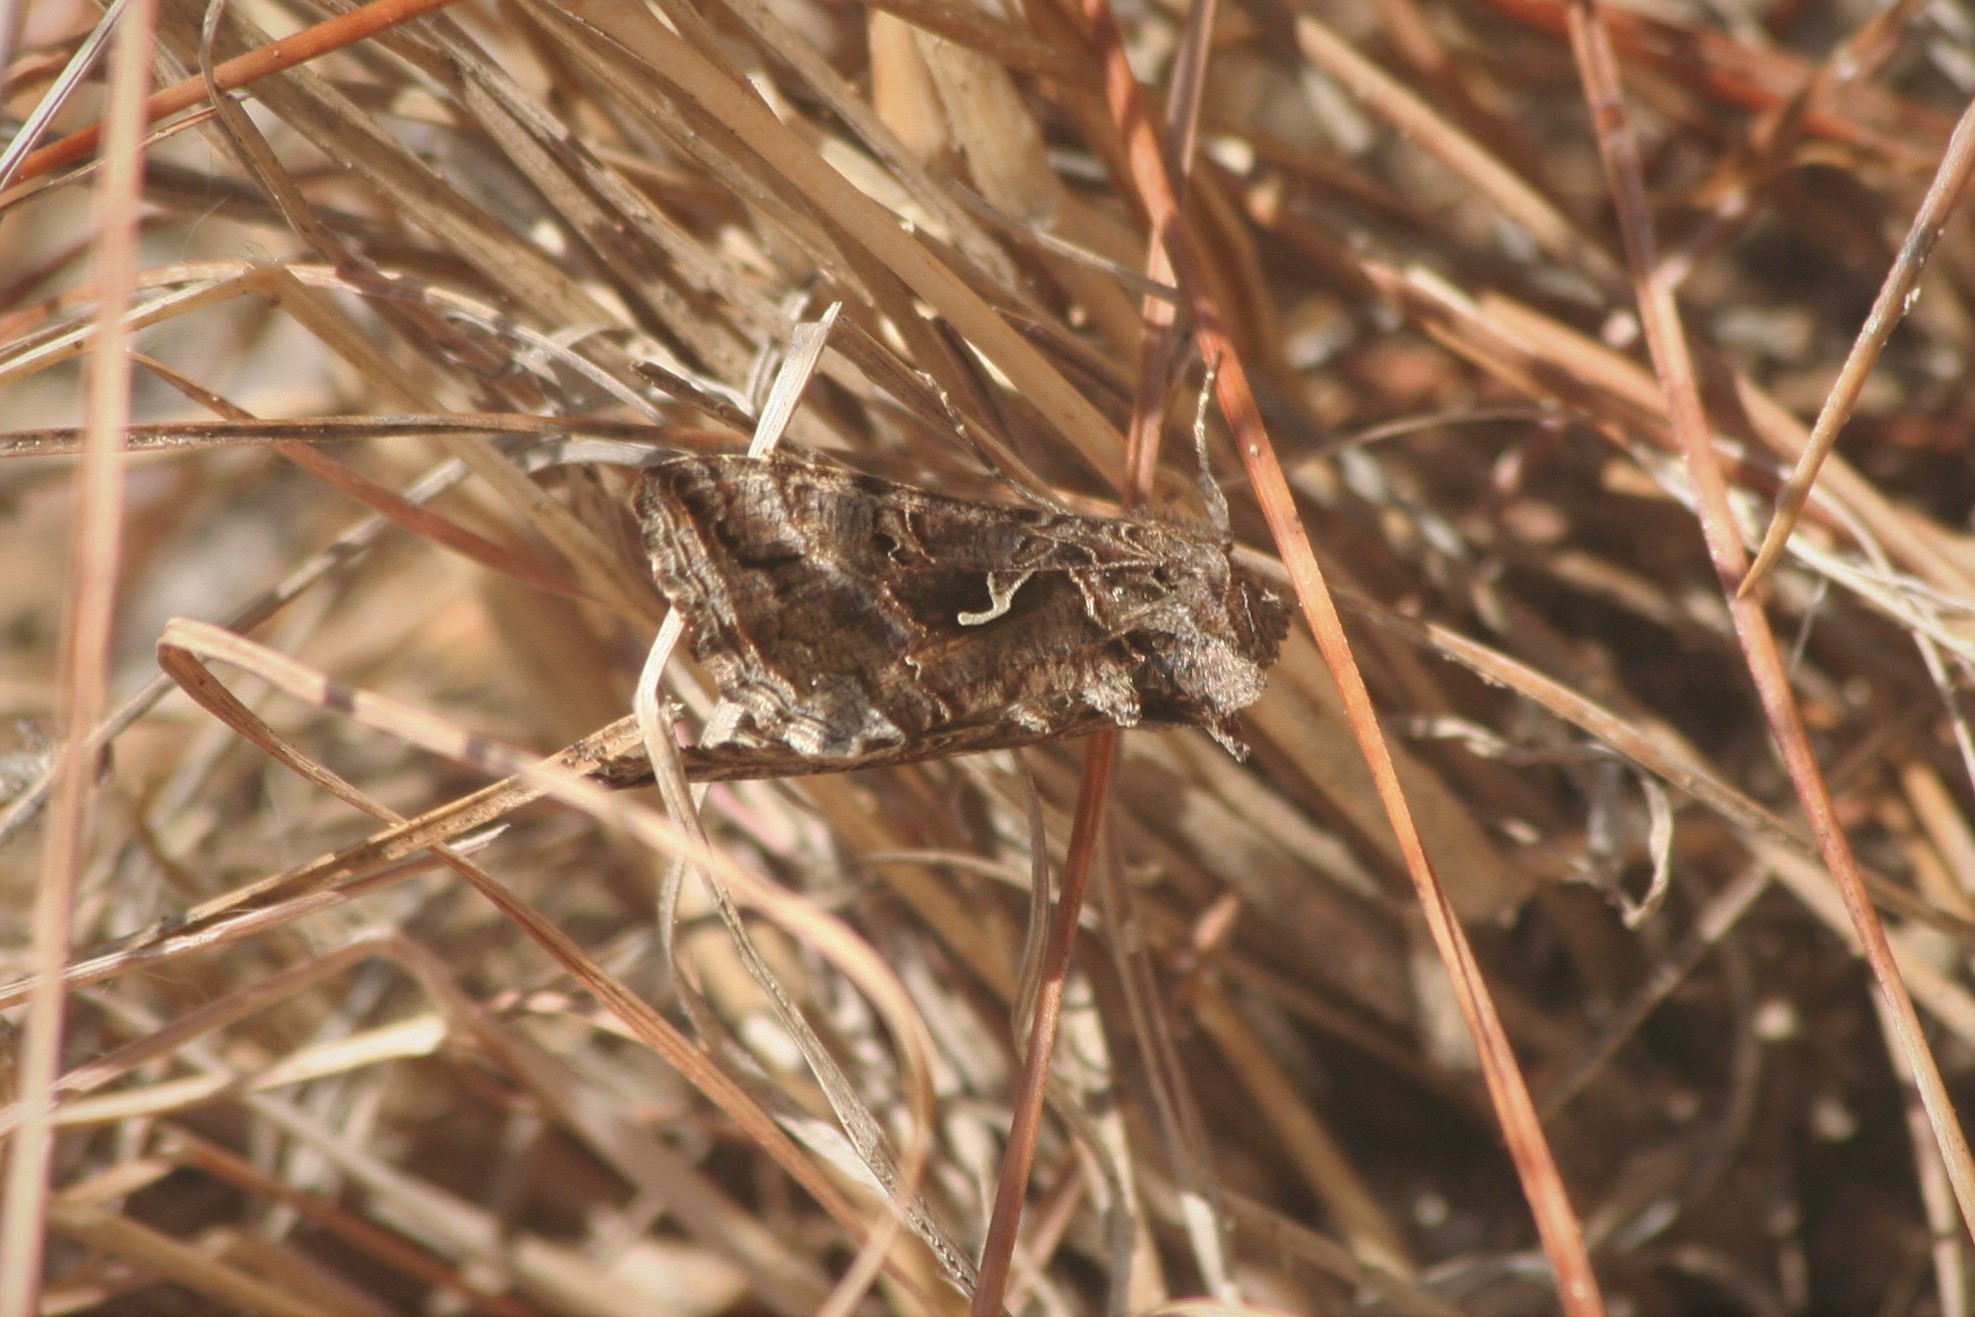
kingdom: Animalia
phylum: Arthropoda
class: Insecta
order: Lepidoptera
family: Noctuidae
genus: Autographa
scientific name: Autographa gamma
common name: Silver y
